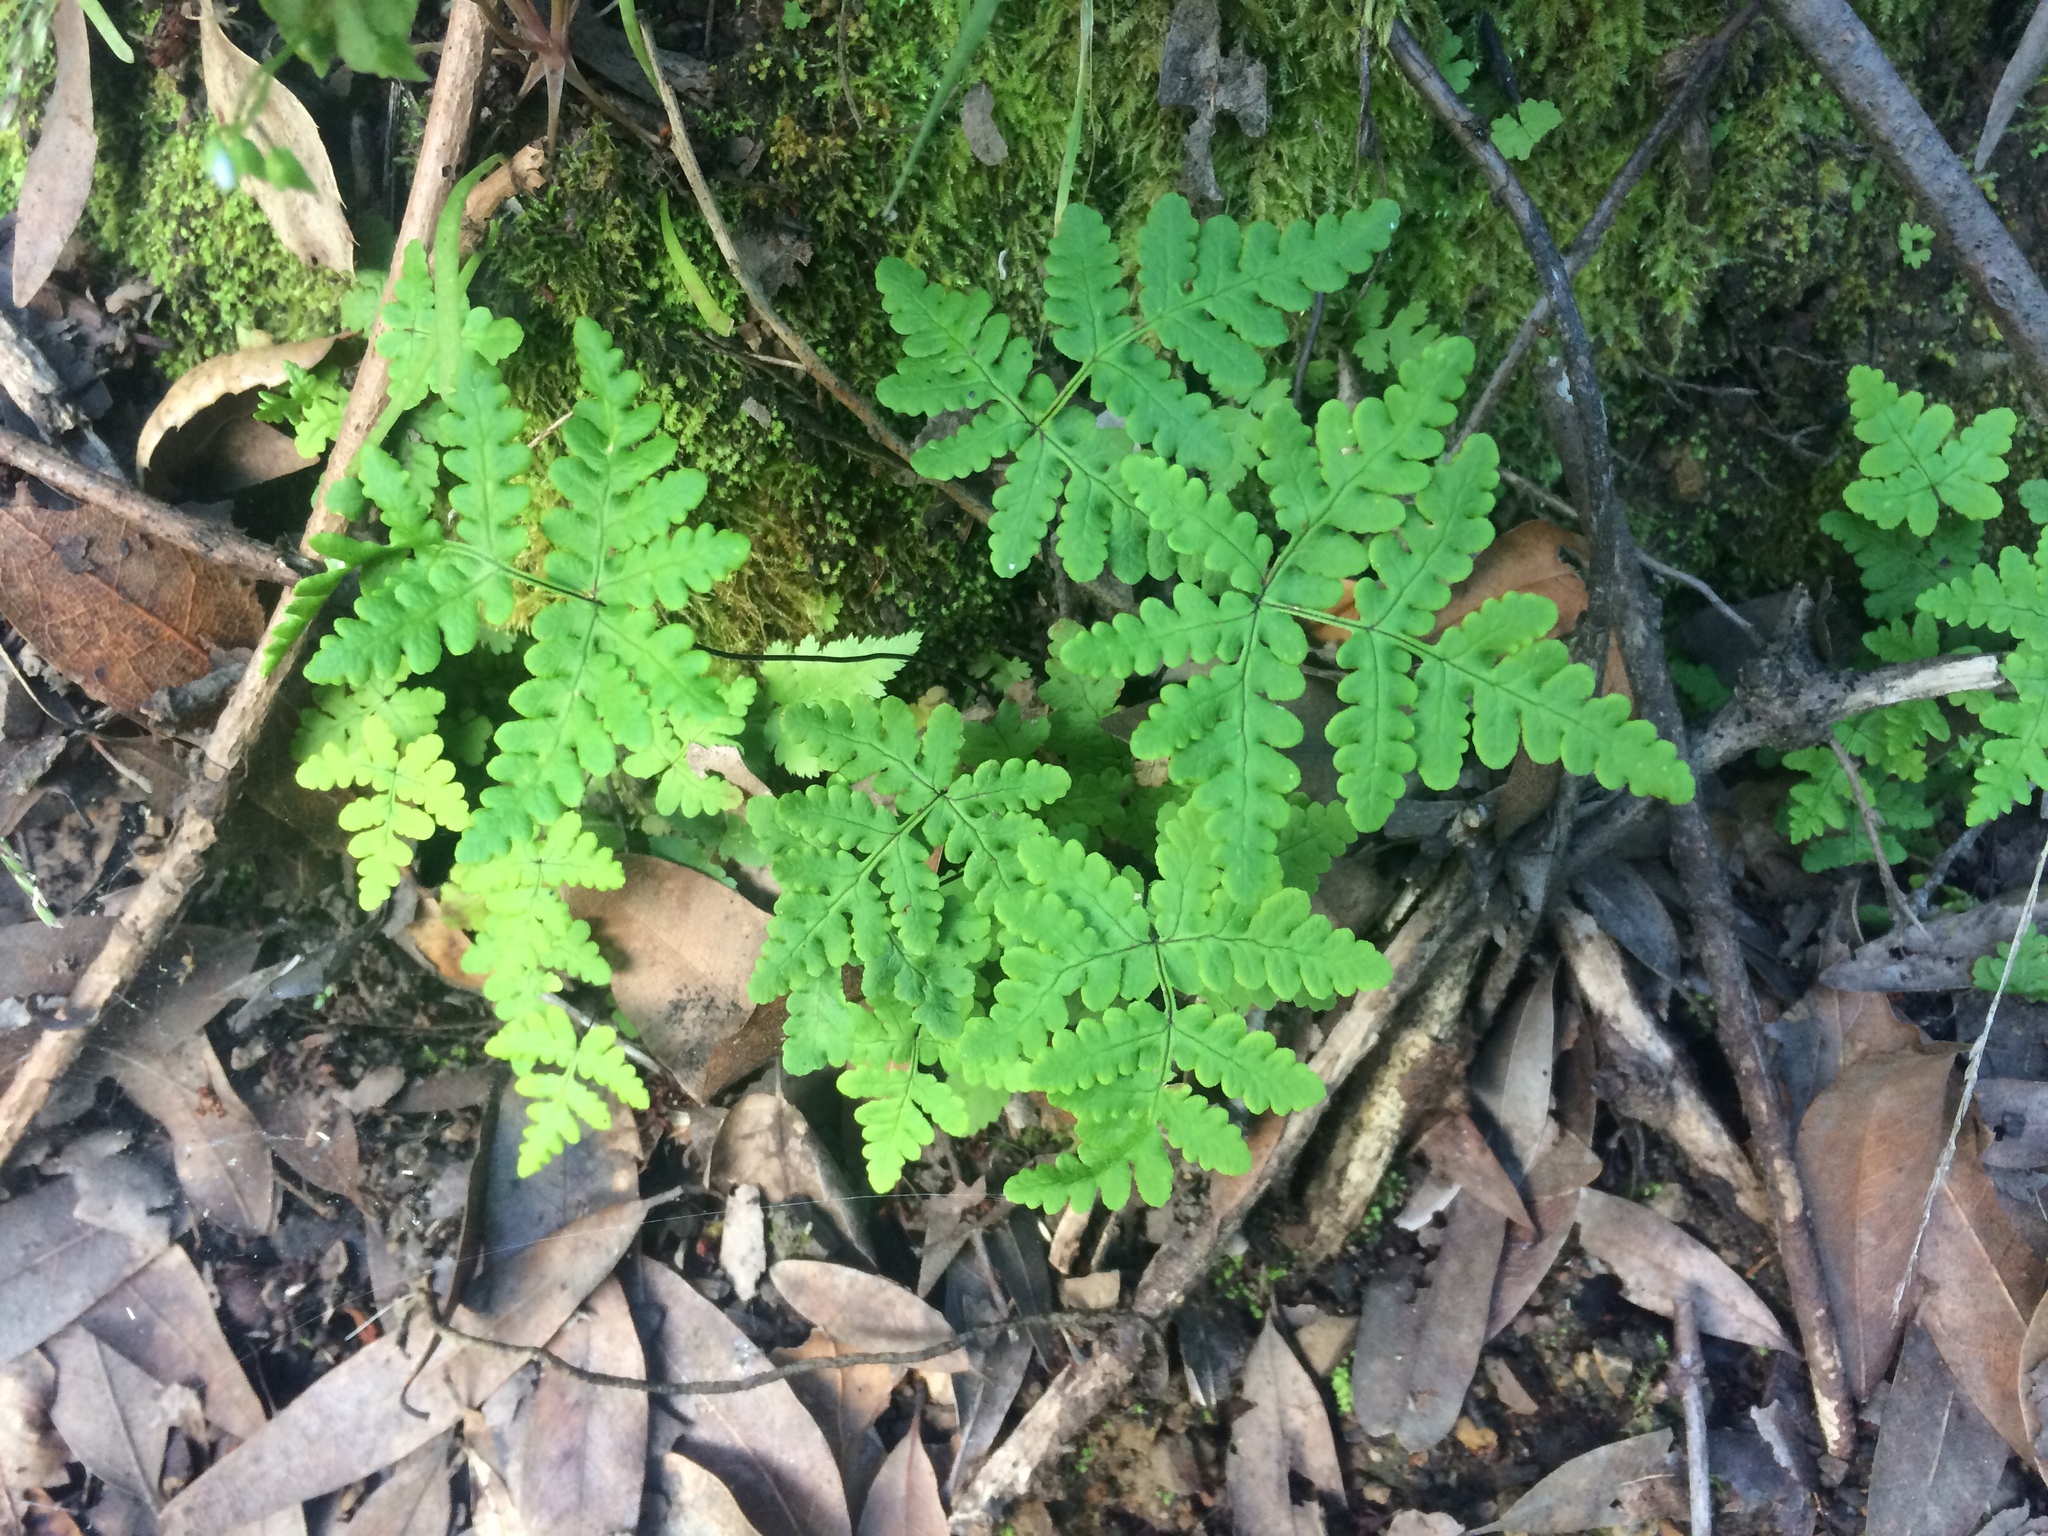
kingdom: Plantae
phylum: Tracheophyta
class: Polypodiopsida
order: Polypodiales
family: Pteridaceae
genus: Pentagramma
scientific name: Pentagramma triangularis
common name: Gold fern
